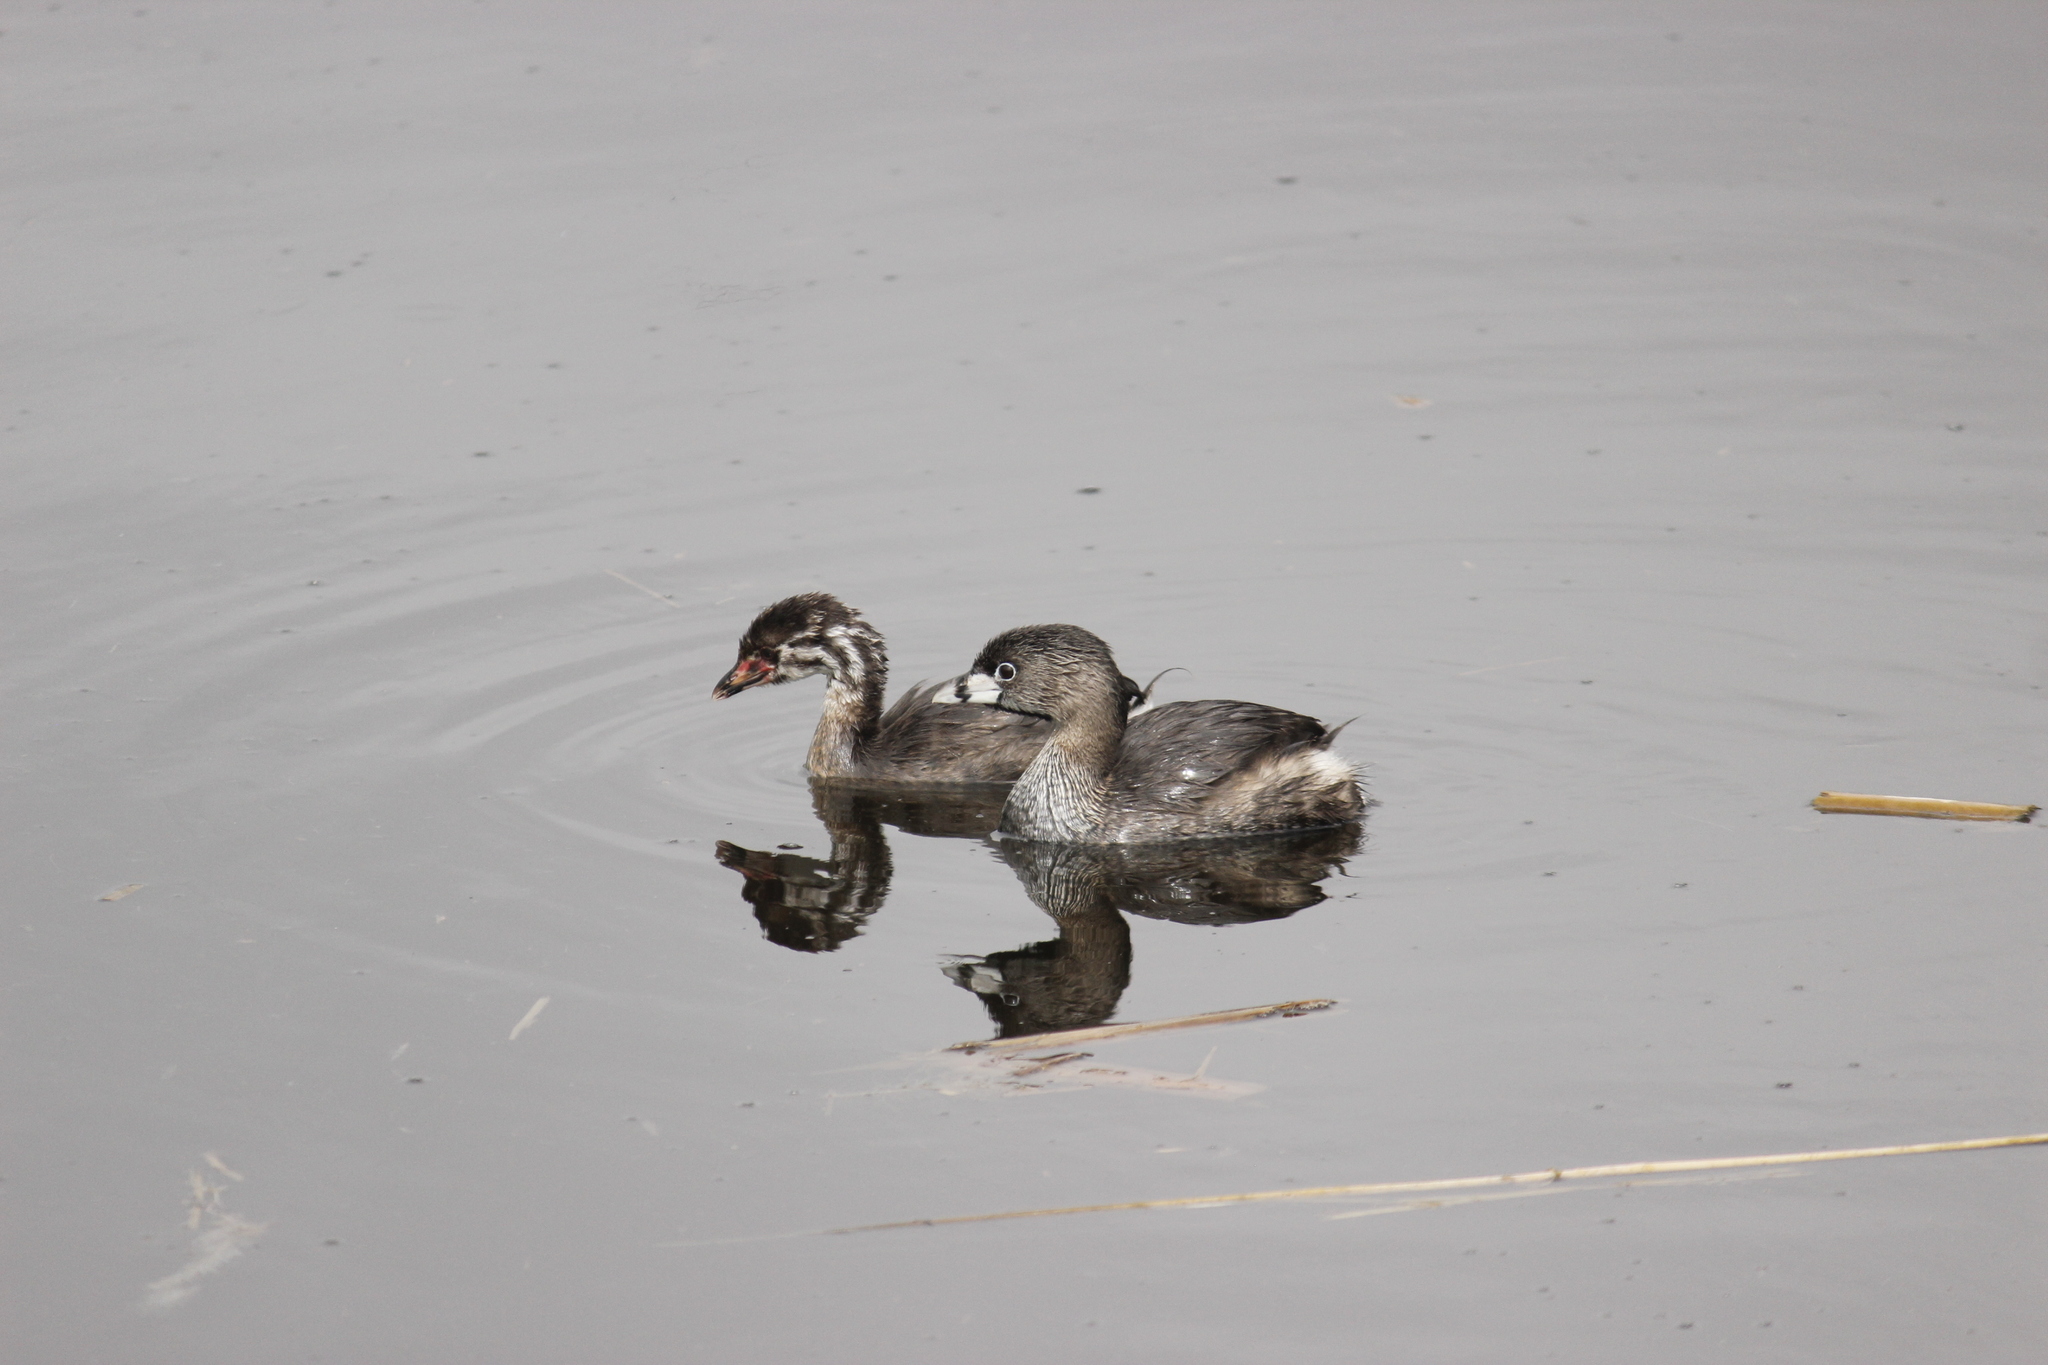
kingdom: Animalia
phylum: Chordata
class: Aves
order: Podicipediformes
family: Podicipedidae
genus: Podilymbus
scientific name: Podilymbus podiceps
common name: Pied-billed grebe
